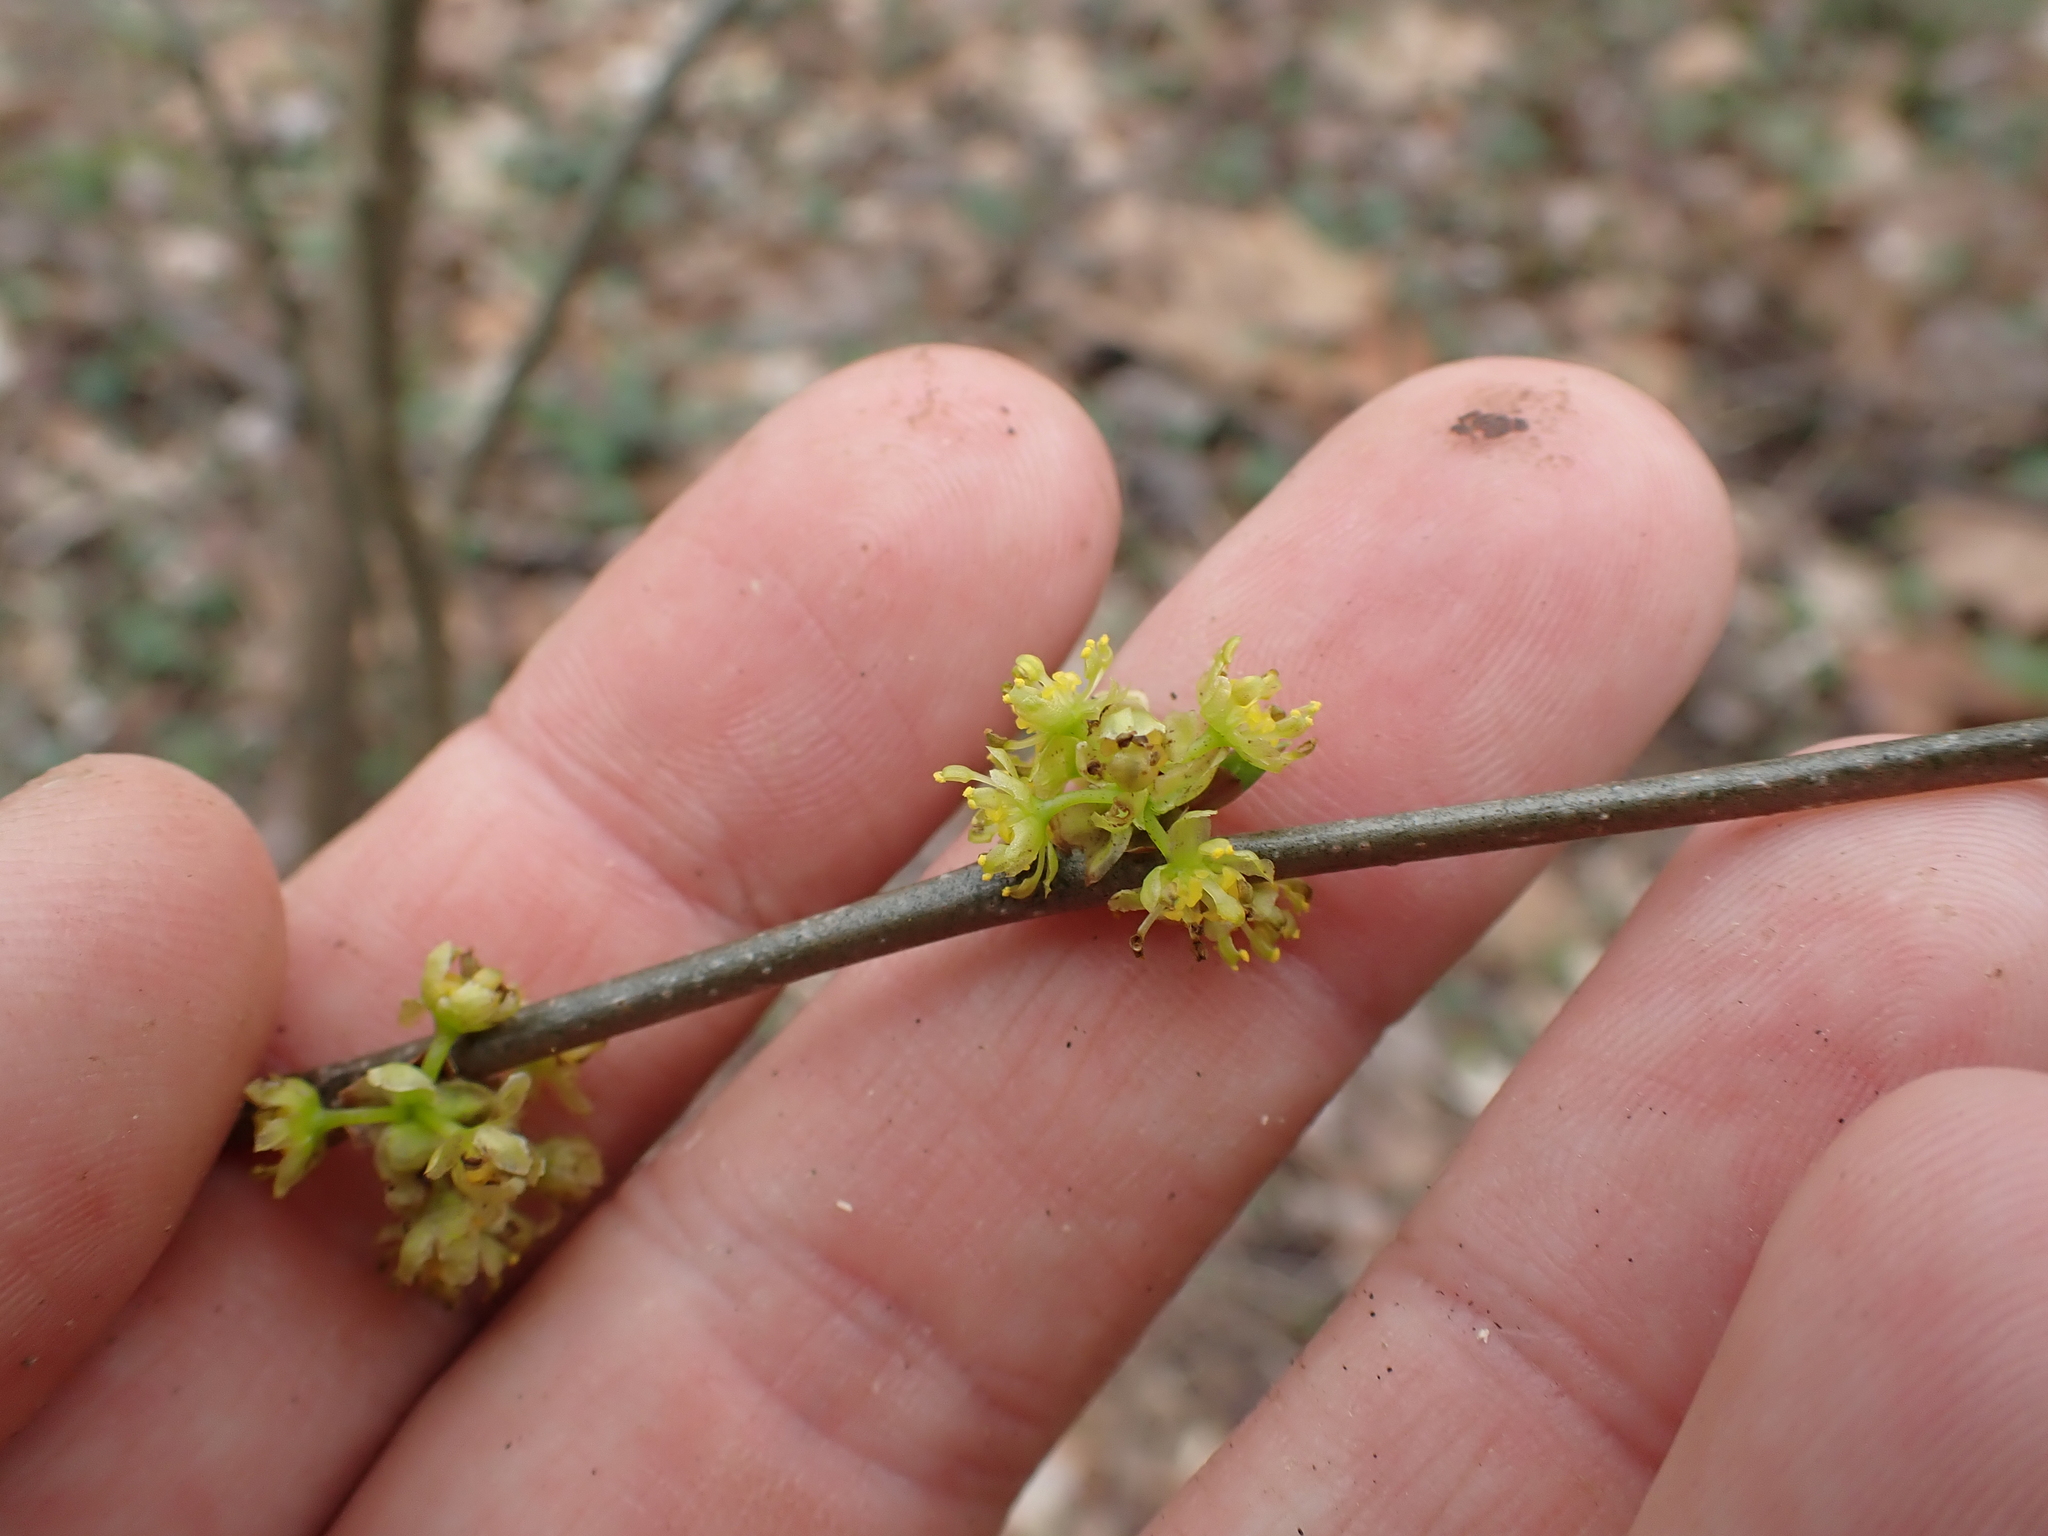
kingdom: Plantae
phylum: Tracheophyta
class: Magnoliopsida
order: Laurales
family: Lauraceae
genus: Lindera
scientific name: Lindera benzoin
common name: Spicebush
